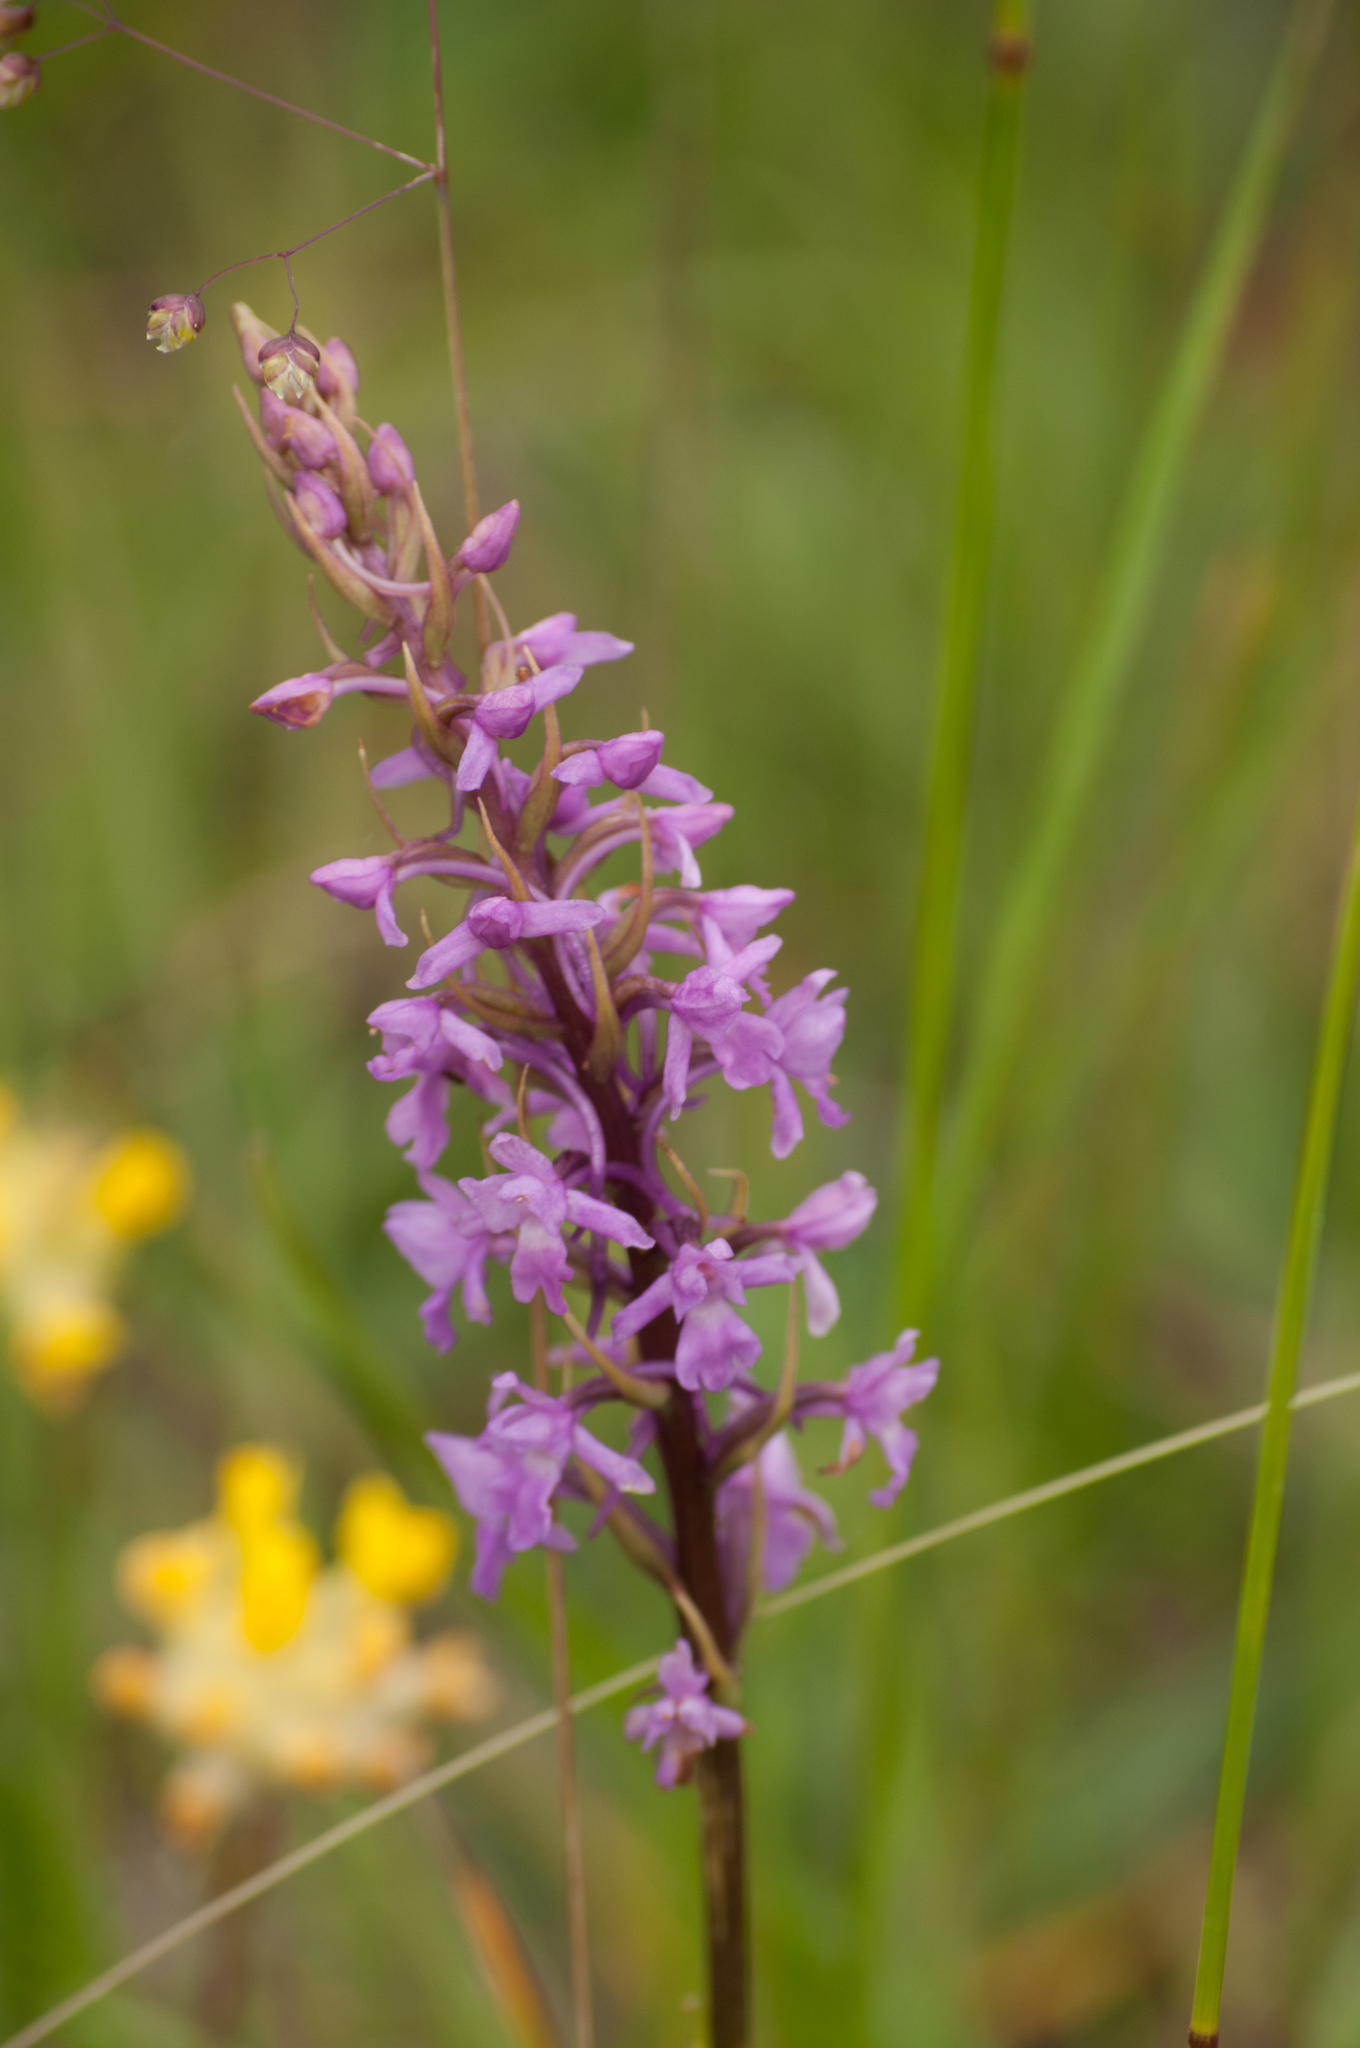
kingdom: Plantae
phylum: Tracheophyta
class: Liliopsida
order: Asparagales
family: Orchidaceae
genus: Gymnadenia
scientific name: Gymnadenia conopsea
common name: Fragrant orchid
